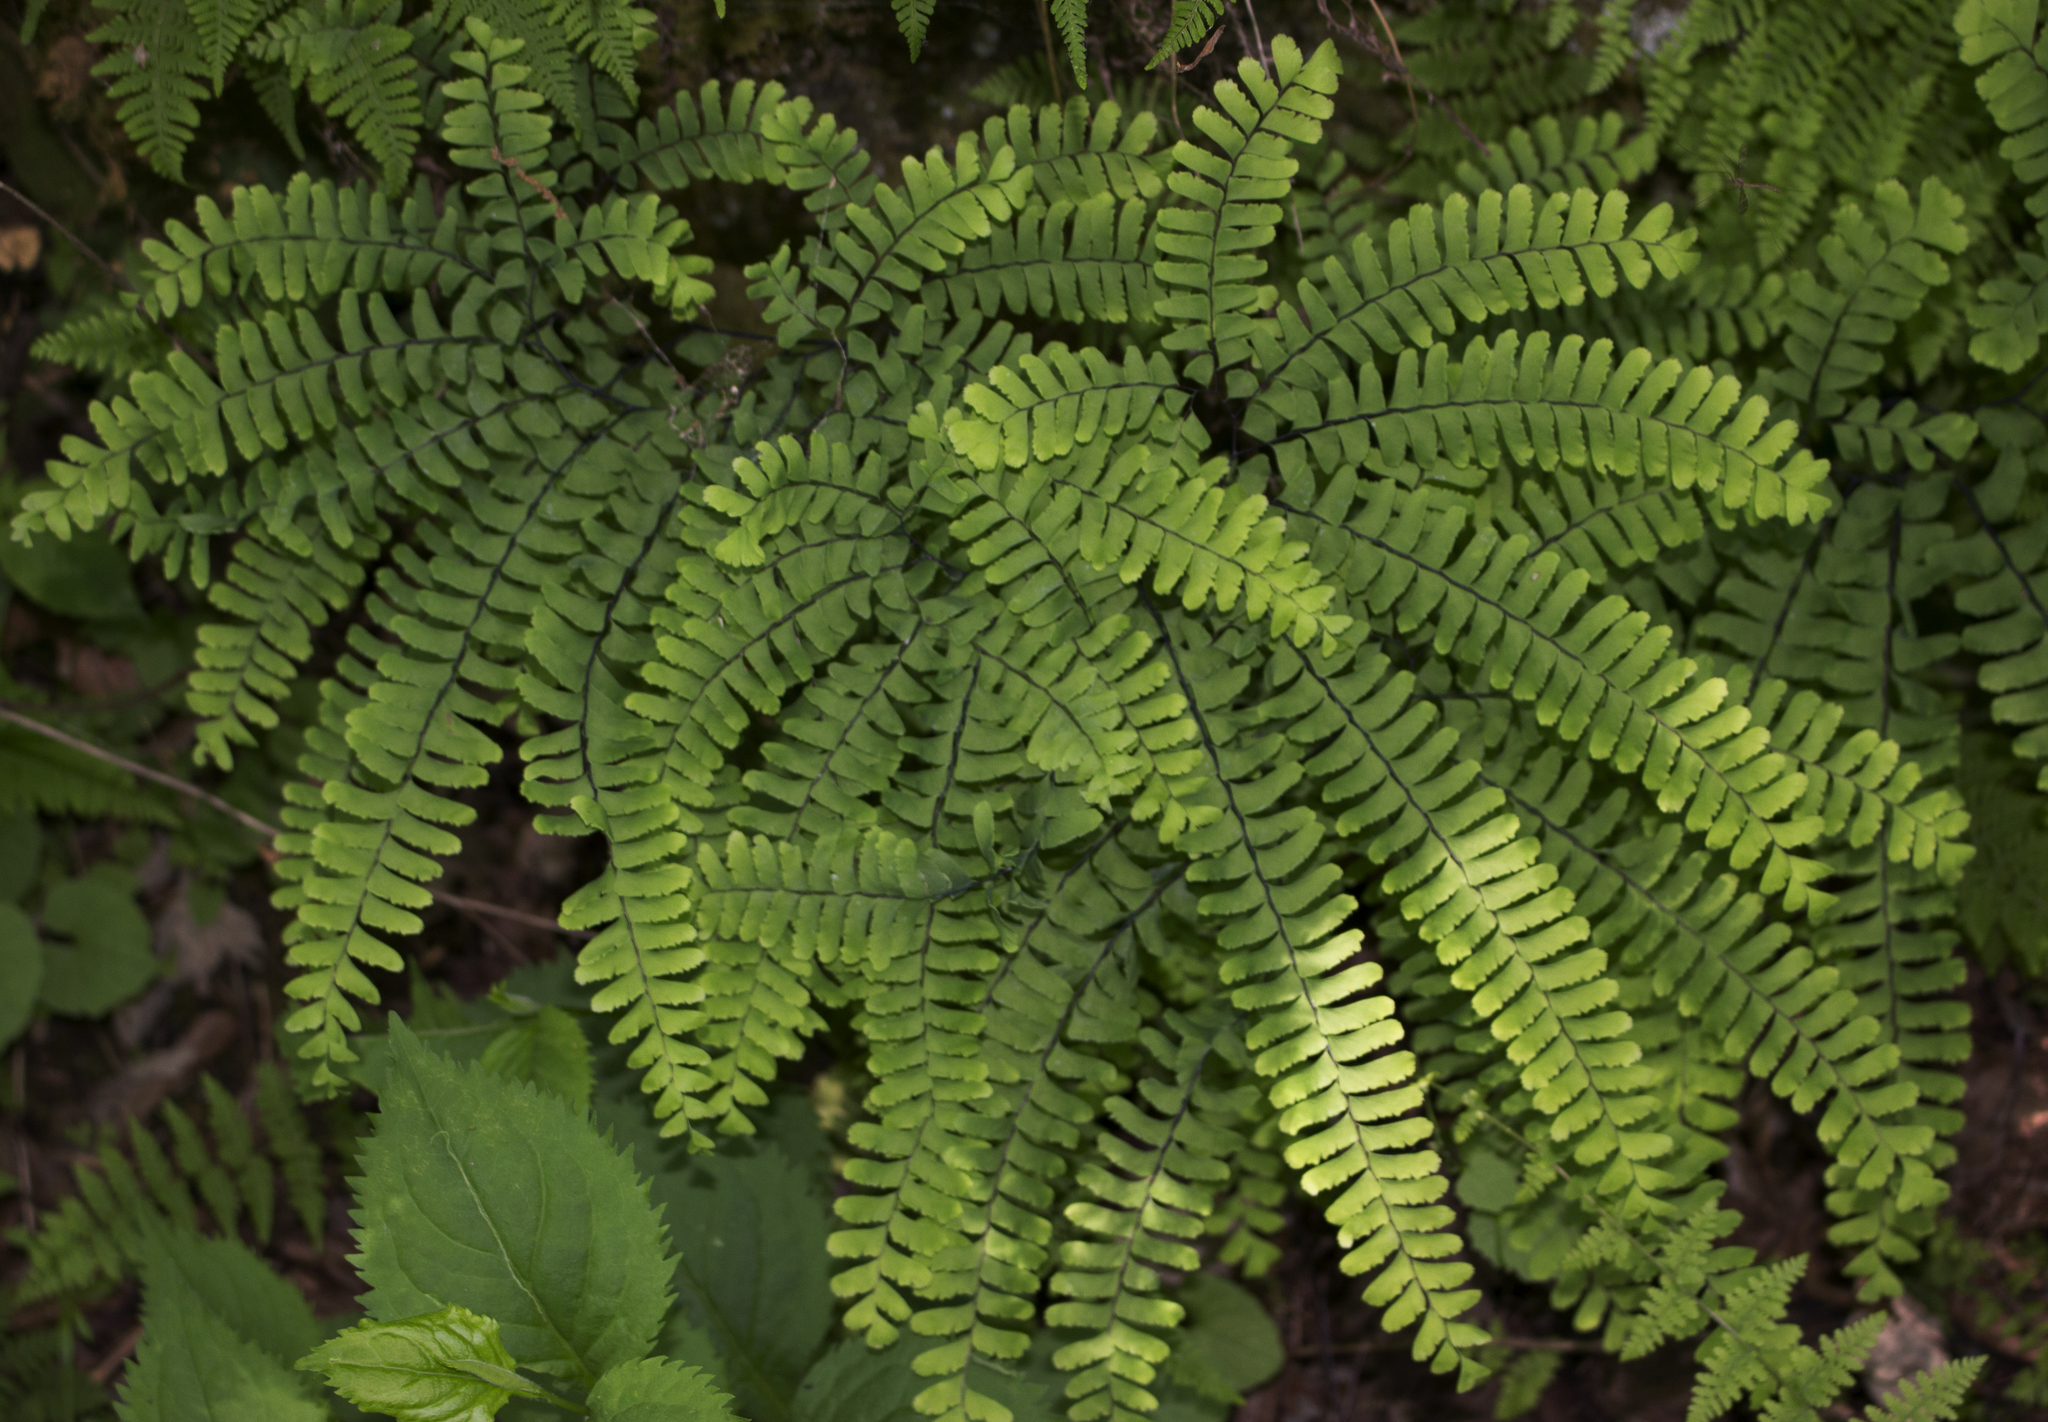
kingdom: Plantae
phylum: Tracheophyta
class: Polypodiopsida
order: Polypodiales
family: Pteridaceae
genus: Adiantum
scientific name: Adiantum pedatum
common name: Five-finger fern
